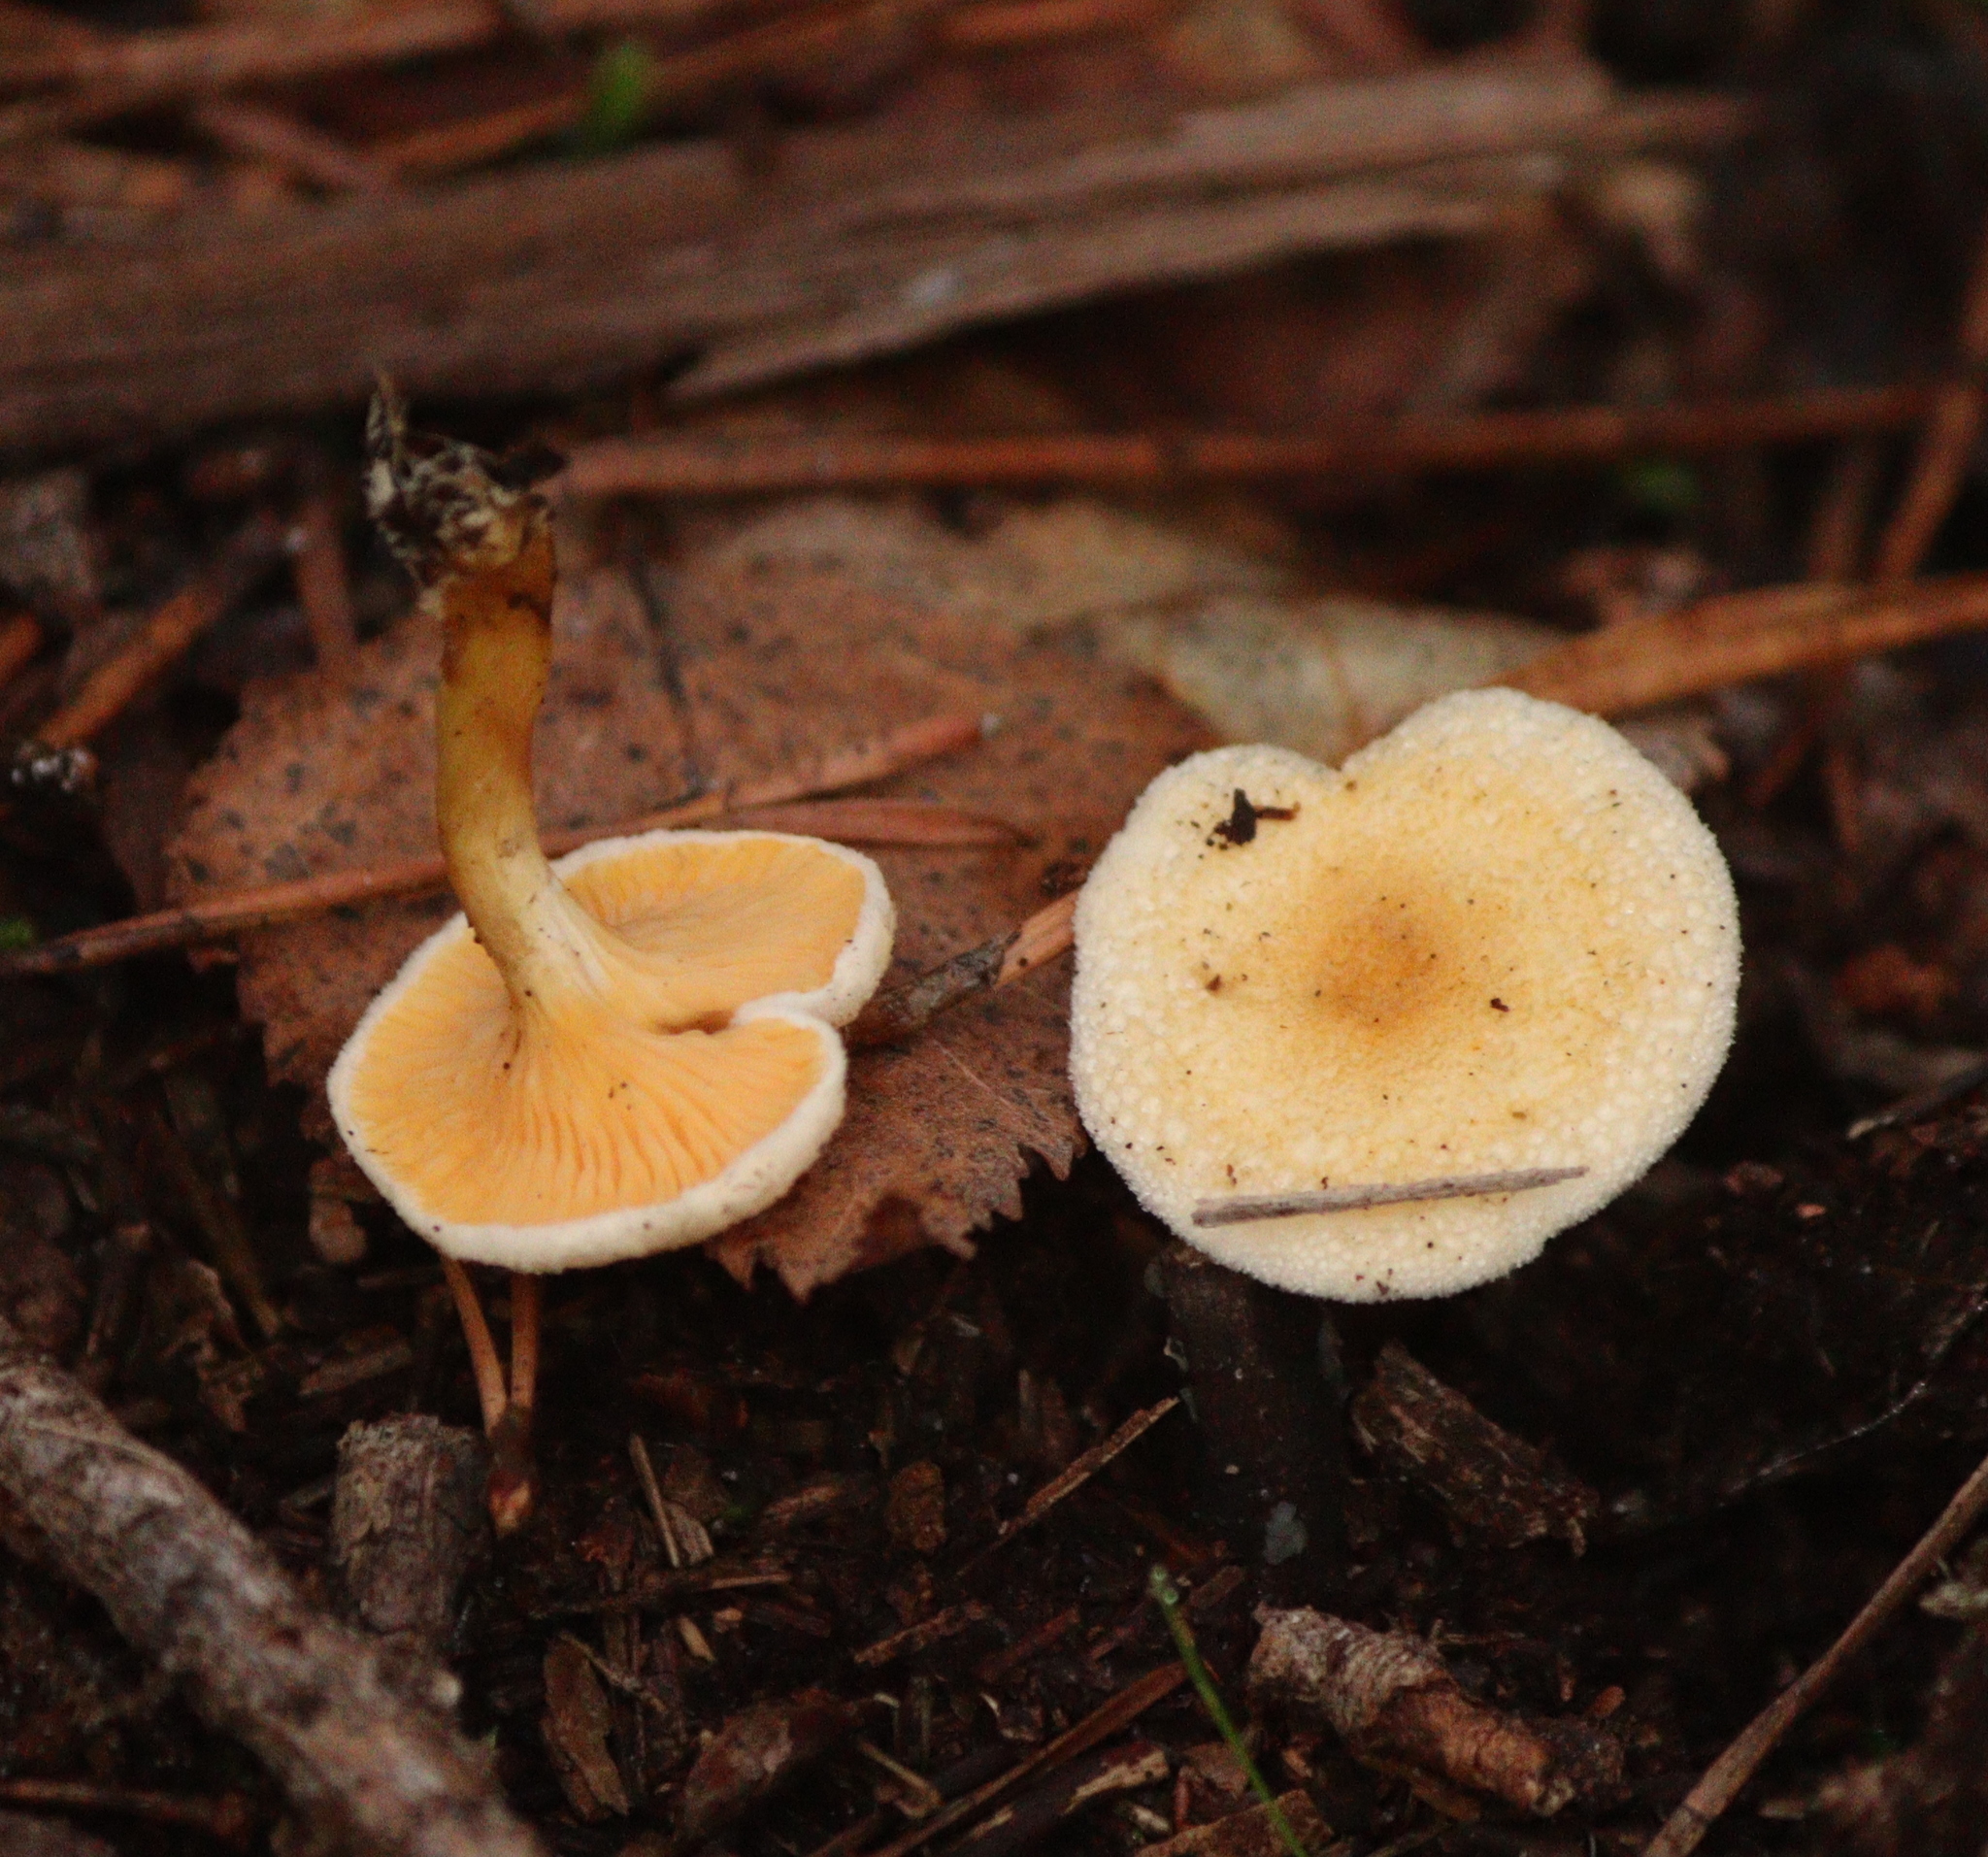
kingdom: Fungi
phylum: Basidiomycota
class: Agaricomycetes
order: Boletales
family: Hygrophoropsidaceae
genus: Hygrophoropsis
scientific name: Hygrophoropsis aurantiaca
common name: False chanterelle
